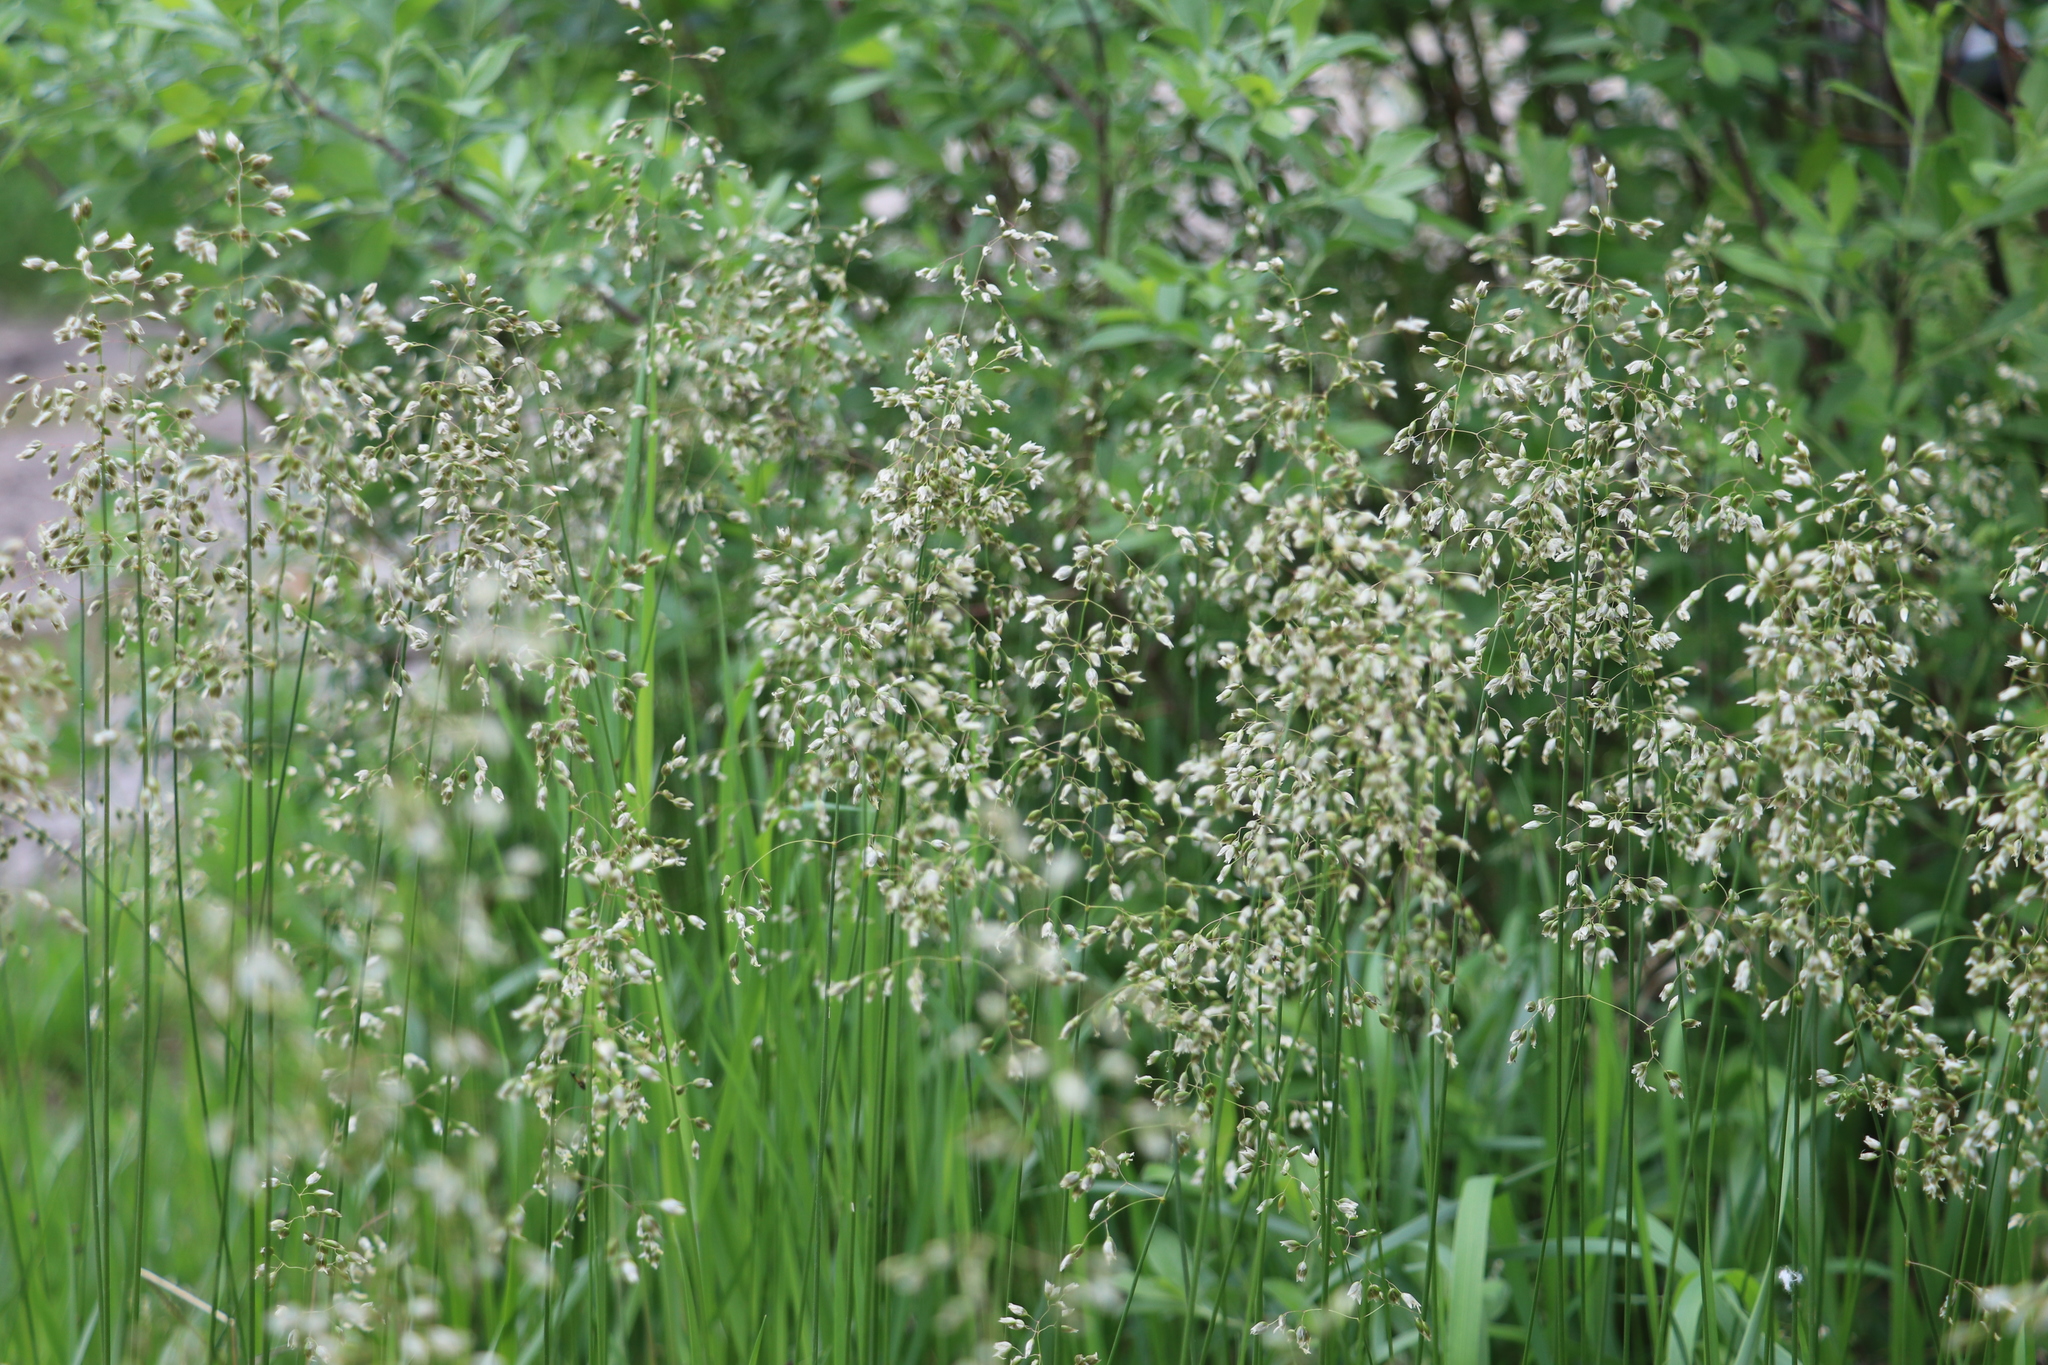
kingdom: Plantae
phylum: Tracheophyta
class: Liliopsida
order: Poales
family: Poaceae
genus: Anthoxanthum
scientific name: Anthoxanthum nitens
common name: Holy grass
